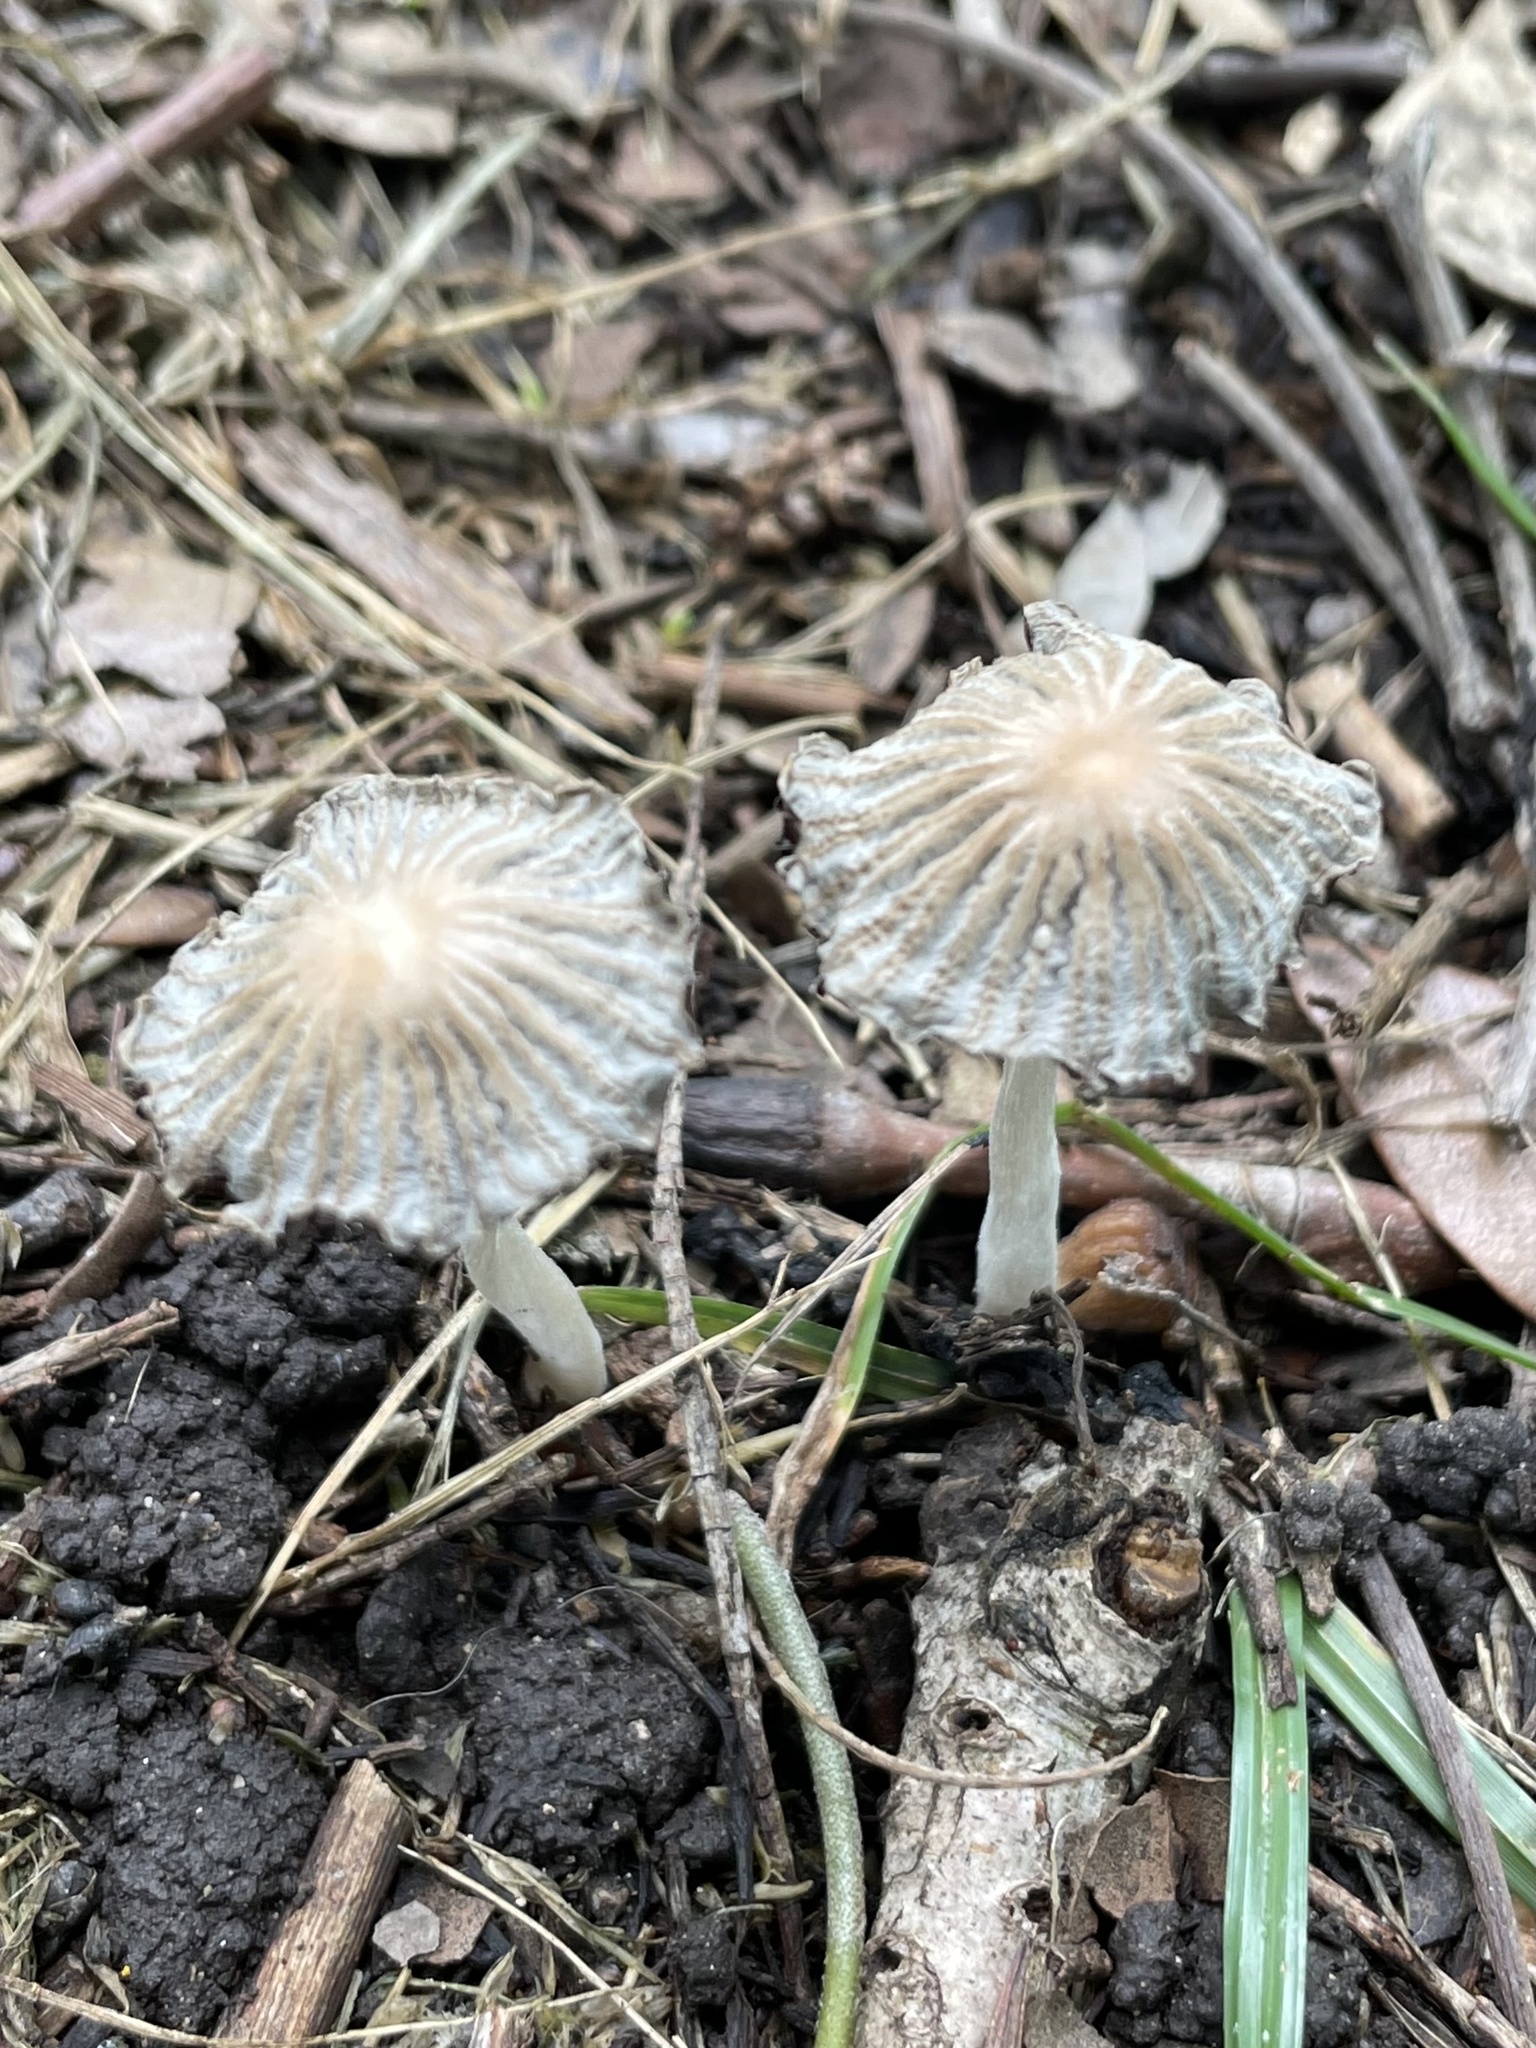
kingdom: Fungi
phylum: Basidiomycota
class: Agaricomycetes
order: Agaricales
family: Psathyrellaceae
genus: Parasola
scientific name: Parasola plicatilis
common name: Pleated inkcap
